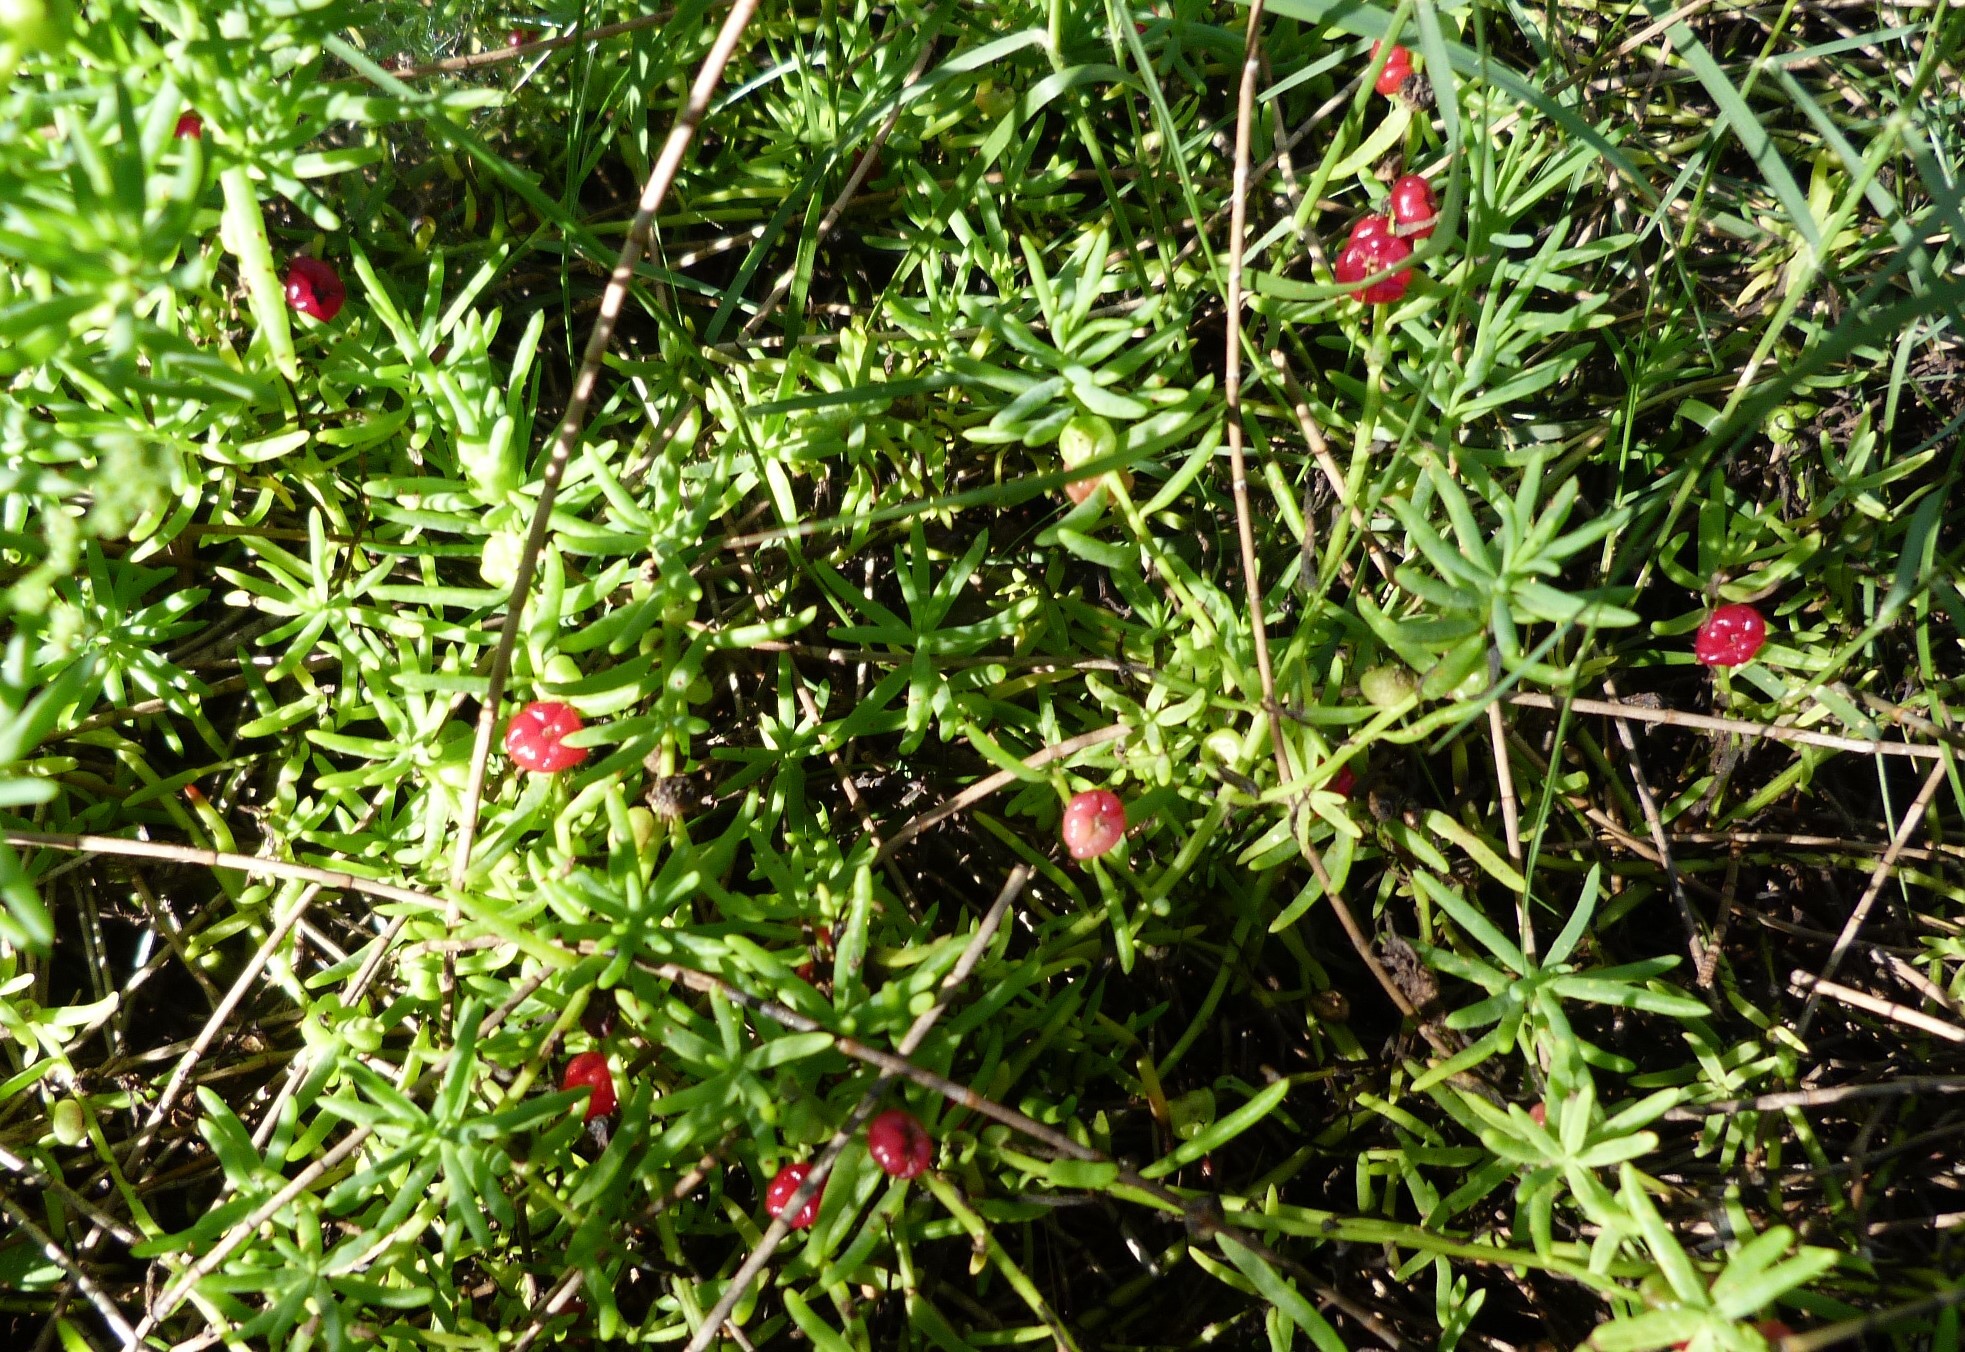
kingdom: Plantae
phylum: Tracheophyta
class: Magnoliopsida
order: Caryophyllales
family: Amaranthaceae
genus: Enchylaena
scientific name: Enchylaena tomentosa
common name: Ruby saltbush
